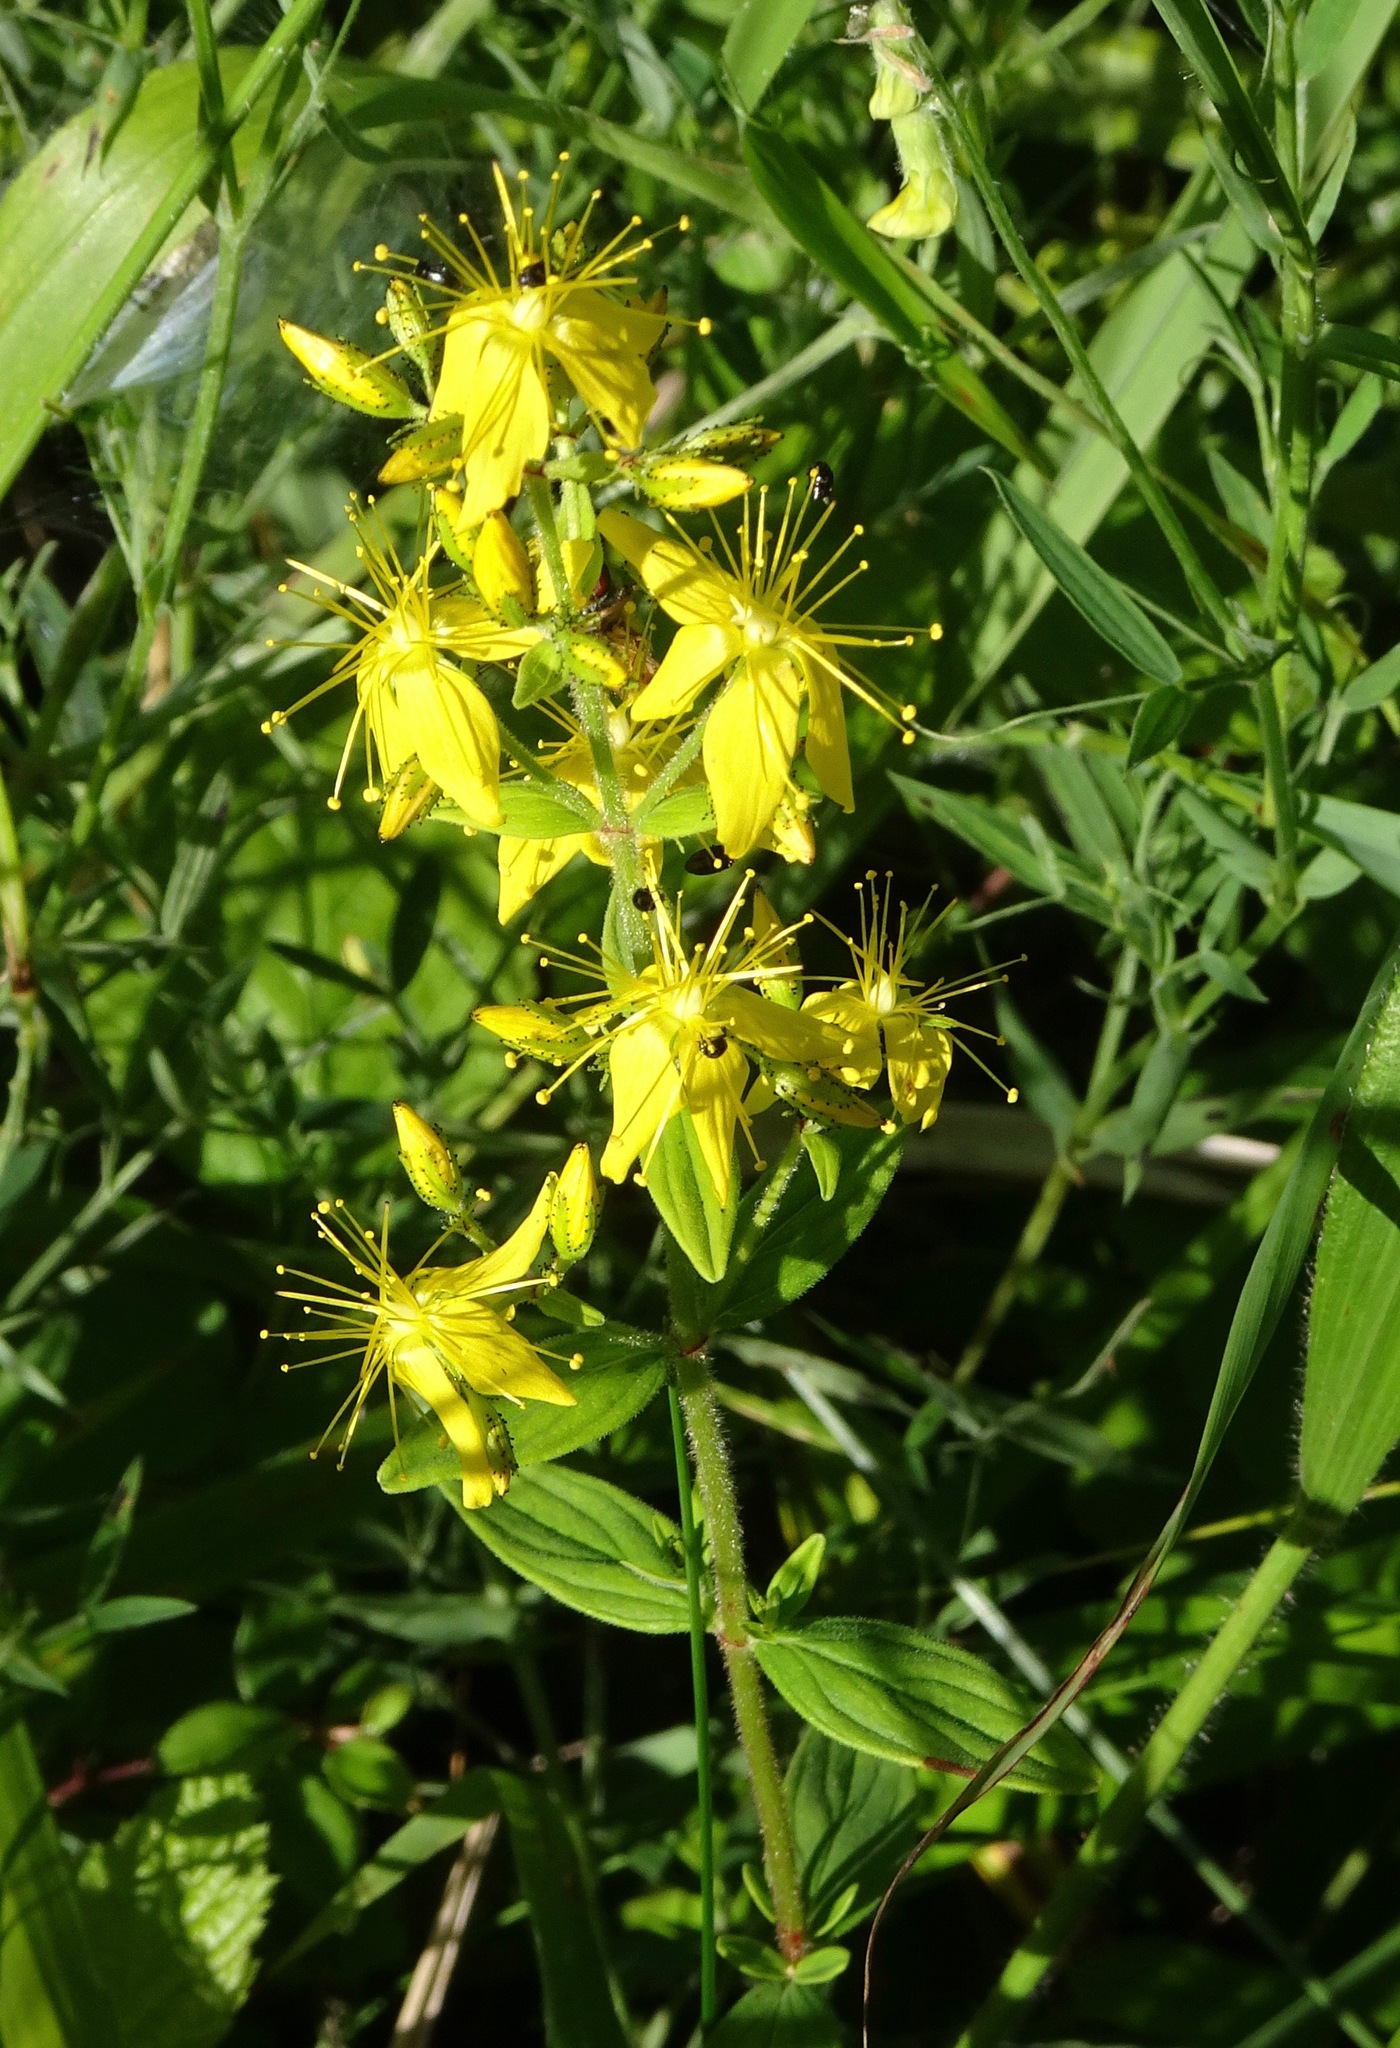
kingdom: Plantae
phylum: Tracheophyta
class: Magnoliopsida
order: Malpighiales
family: Hypericaceae
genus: Hypericum
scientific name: Hypericum hirsutum
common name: Hairy st. john's-wort
